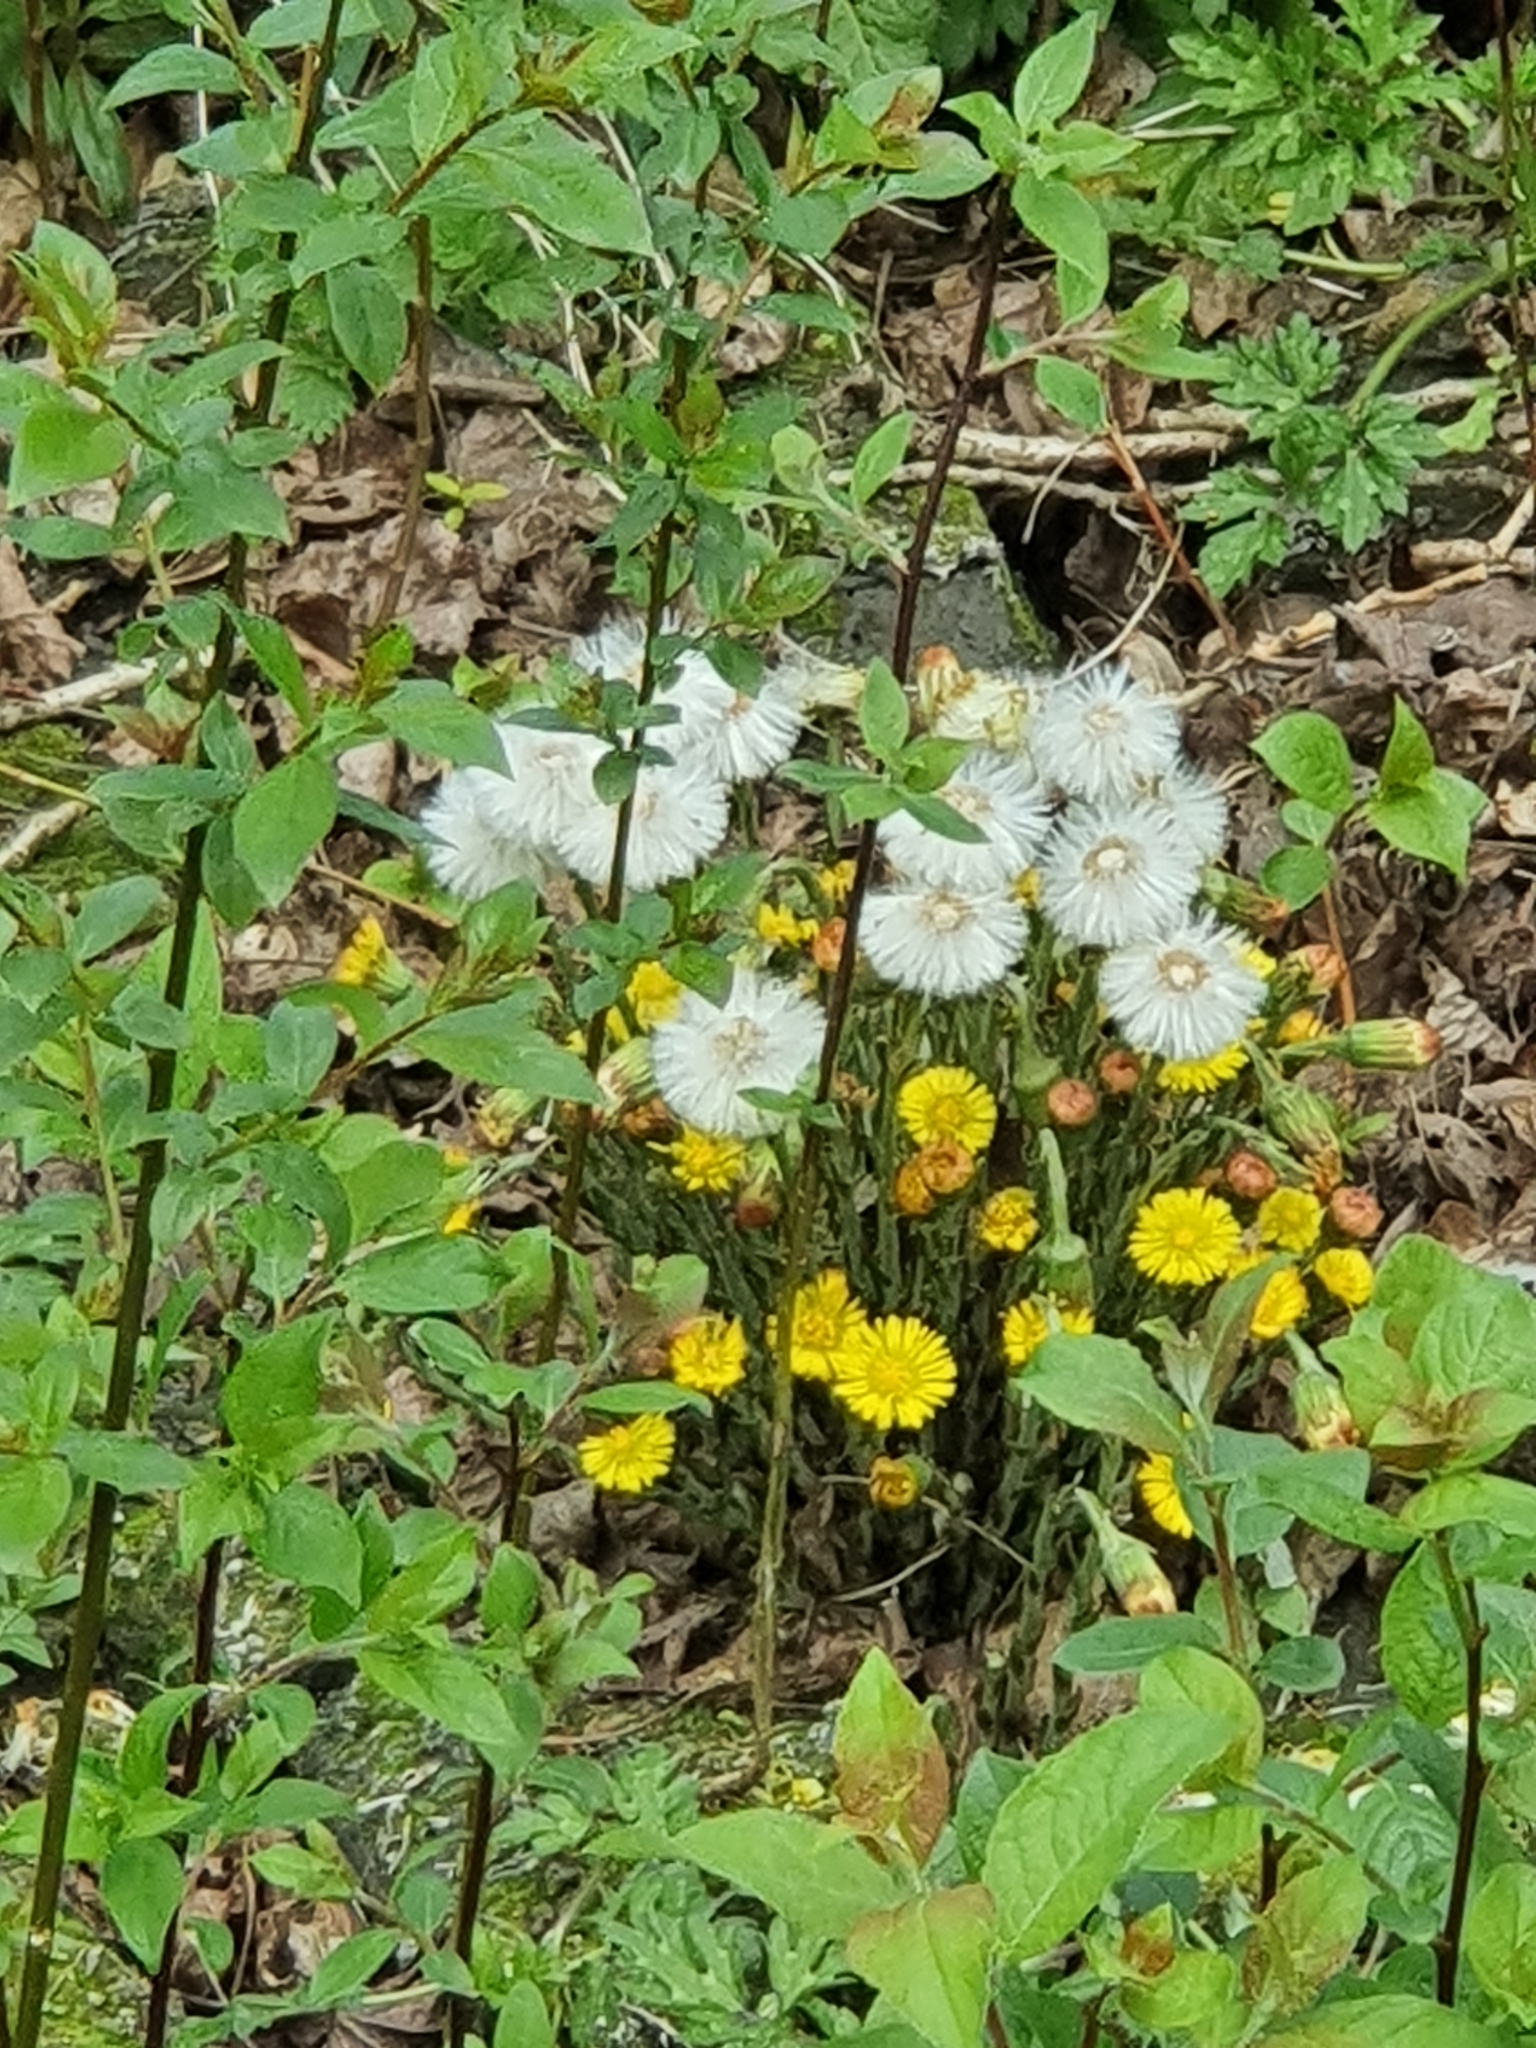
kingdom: Plantae
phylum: Tracheophyta
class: Magnoliopsida
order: Asterales
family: Asteraceae
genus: Tussilago
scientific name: Tussilago farfara
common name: Coltsfoot
